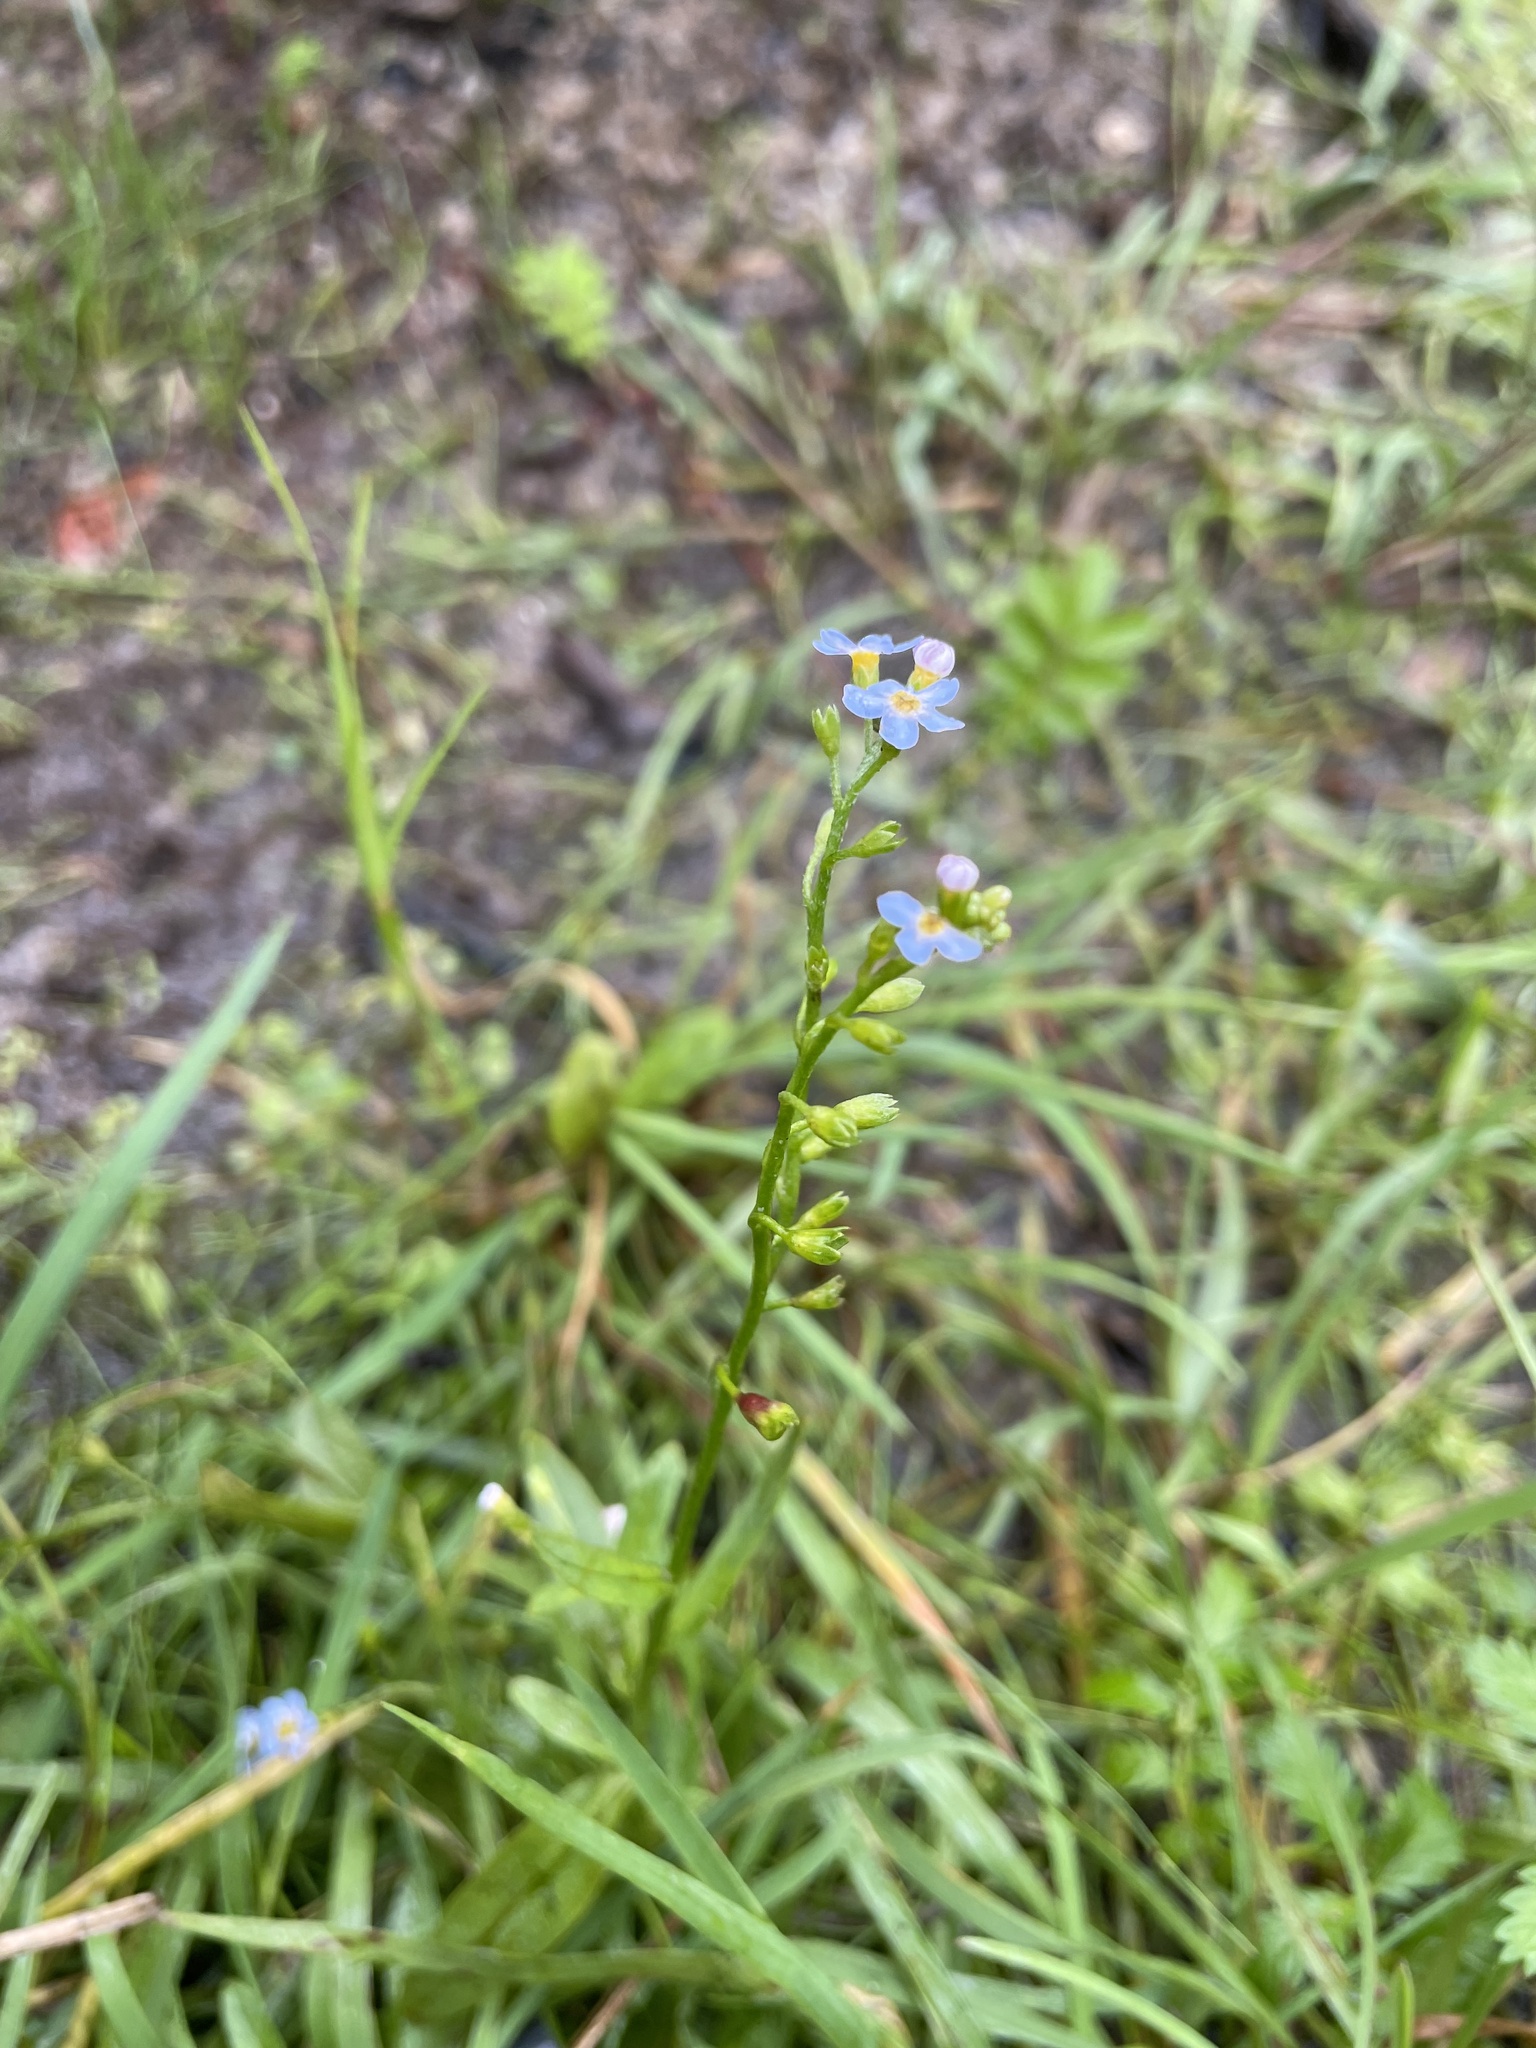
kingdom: Plantae
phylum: Tracheophyta
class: Magnoliopsida
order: Boraginales
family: Boraginaceae
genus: Myosotis
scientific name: Myosotis scorpioides
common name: Water forget-me-not
